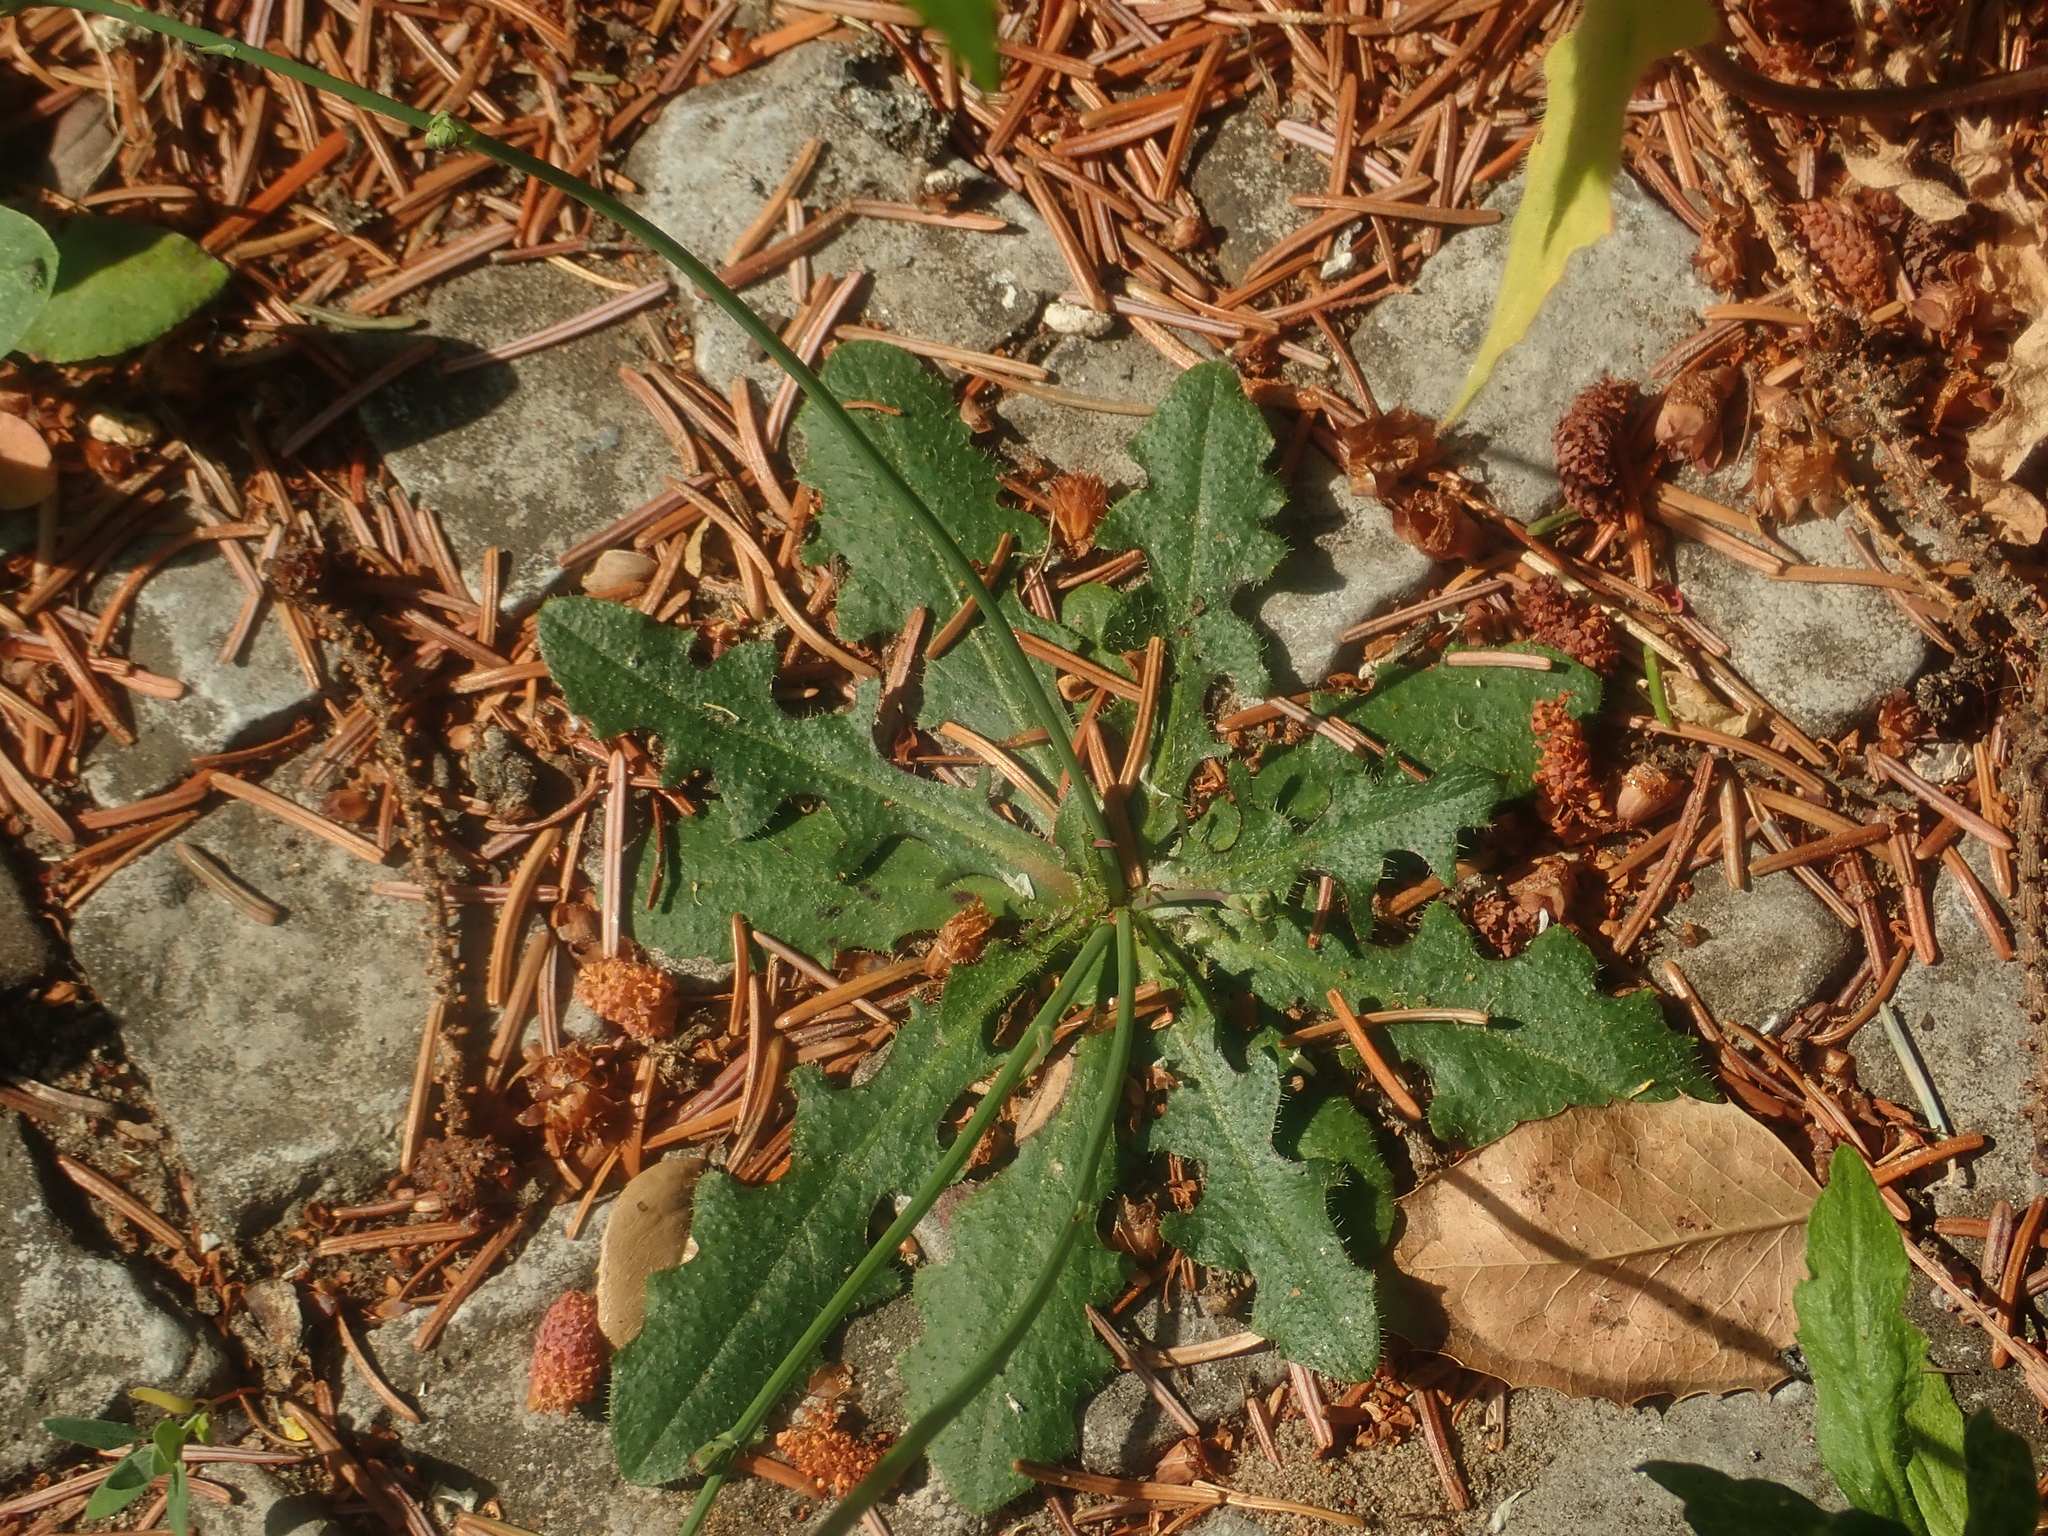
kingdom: Plantae
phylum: Tracheophyta
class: Magnoliopsida
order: Asterales
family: Asteraceae
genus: Hypochaeris
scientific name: Hypochaeris radicata
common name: Flatweed
